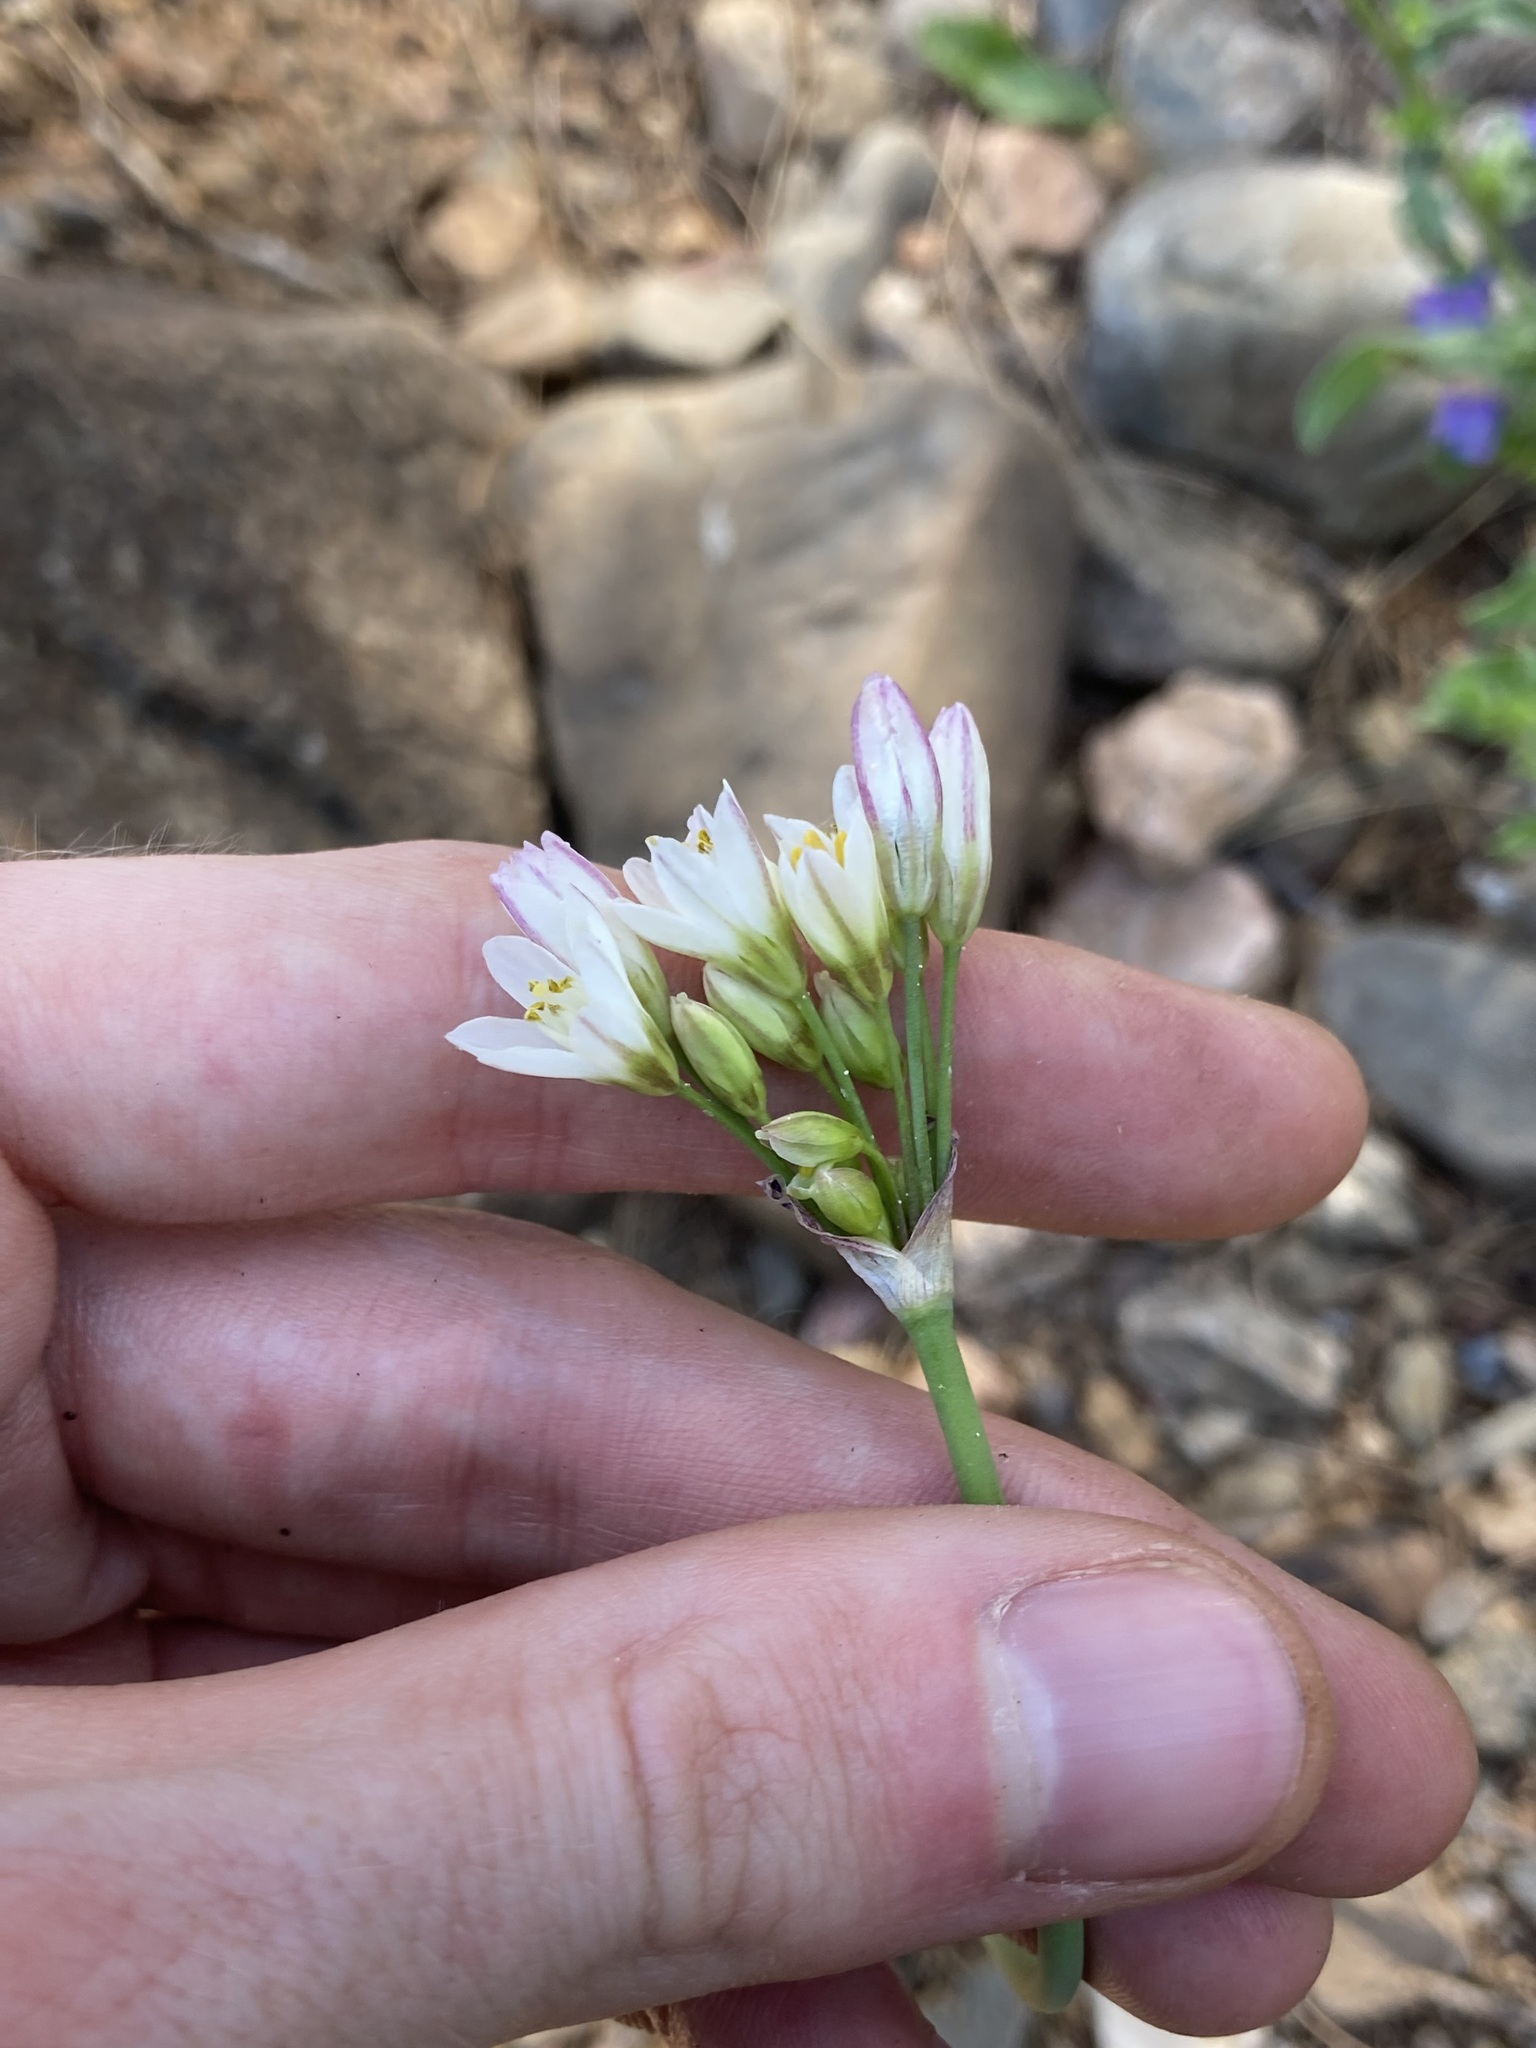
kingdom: Plantae
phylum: Tracheophyta
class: Liliopsida
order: Asparagales
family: Amaryllidaceae
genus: Nothoscordum
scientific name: Nothoscordum gracile
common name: Slender false garlic
